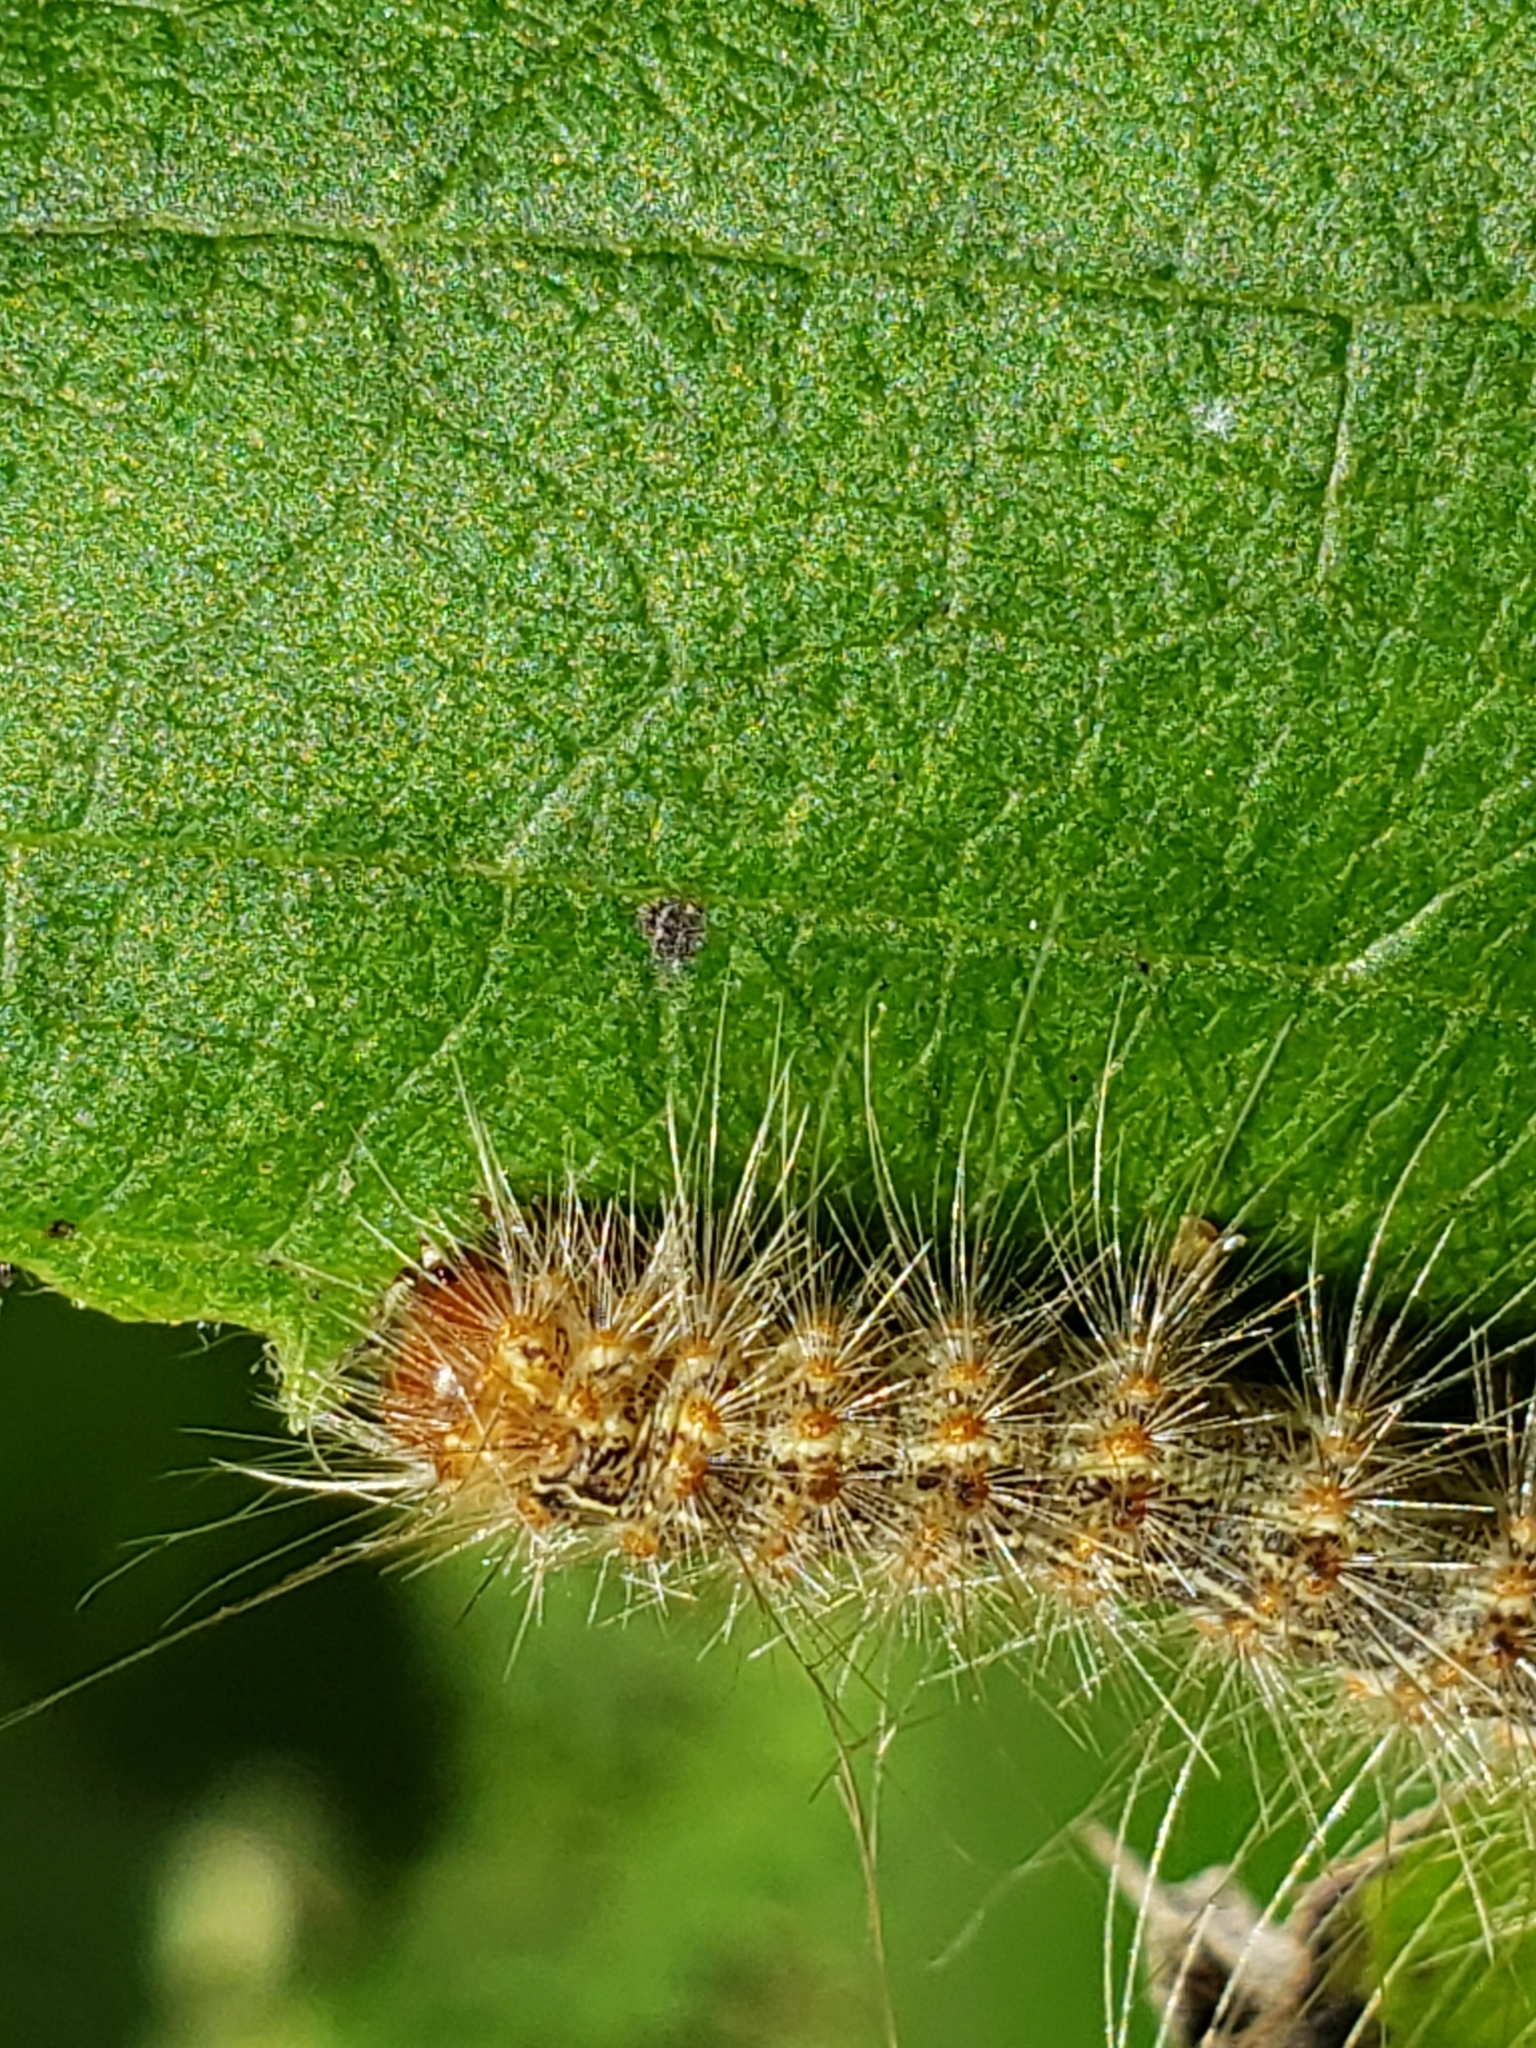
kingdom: Animalia
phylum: Arthropoda
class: Insecta
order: Lepidoptera
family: Erebidae
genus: Hyphantria
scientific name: Hyphantria cunea
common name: American white moth
